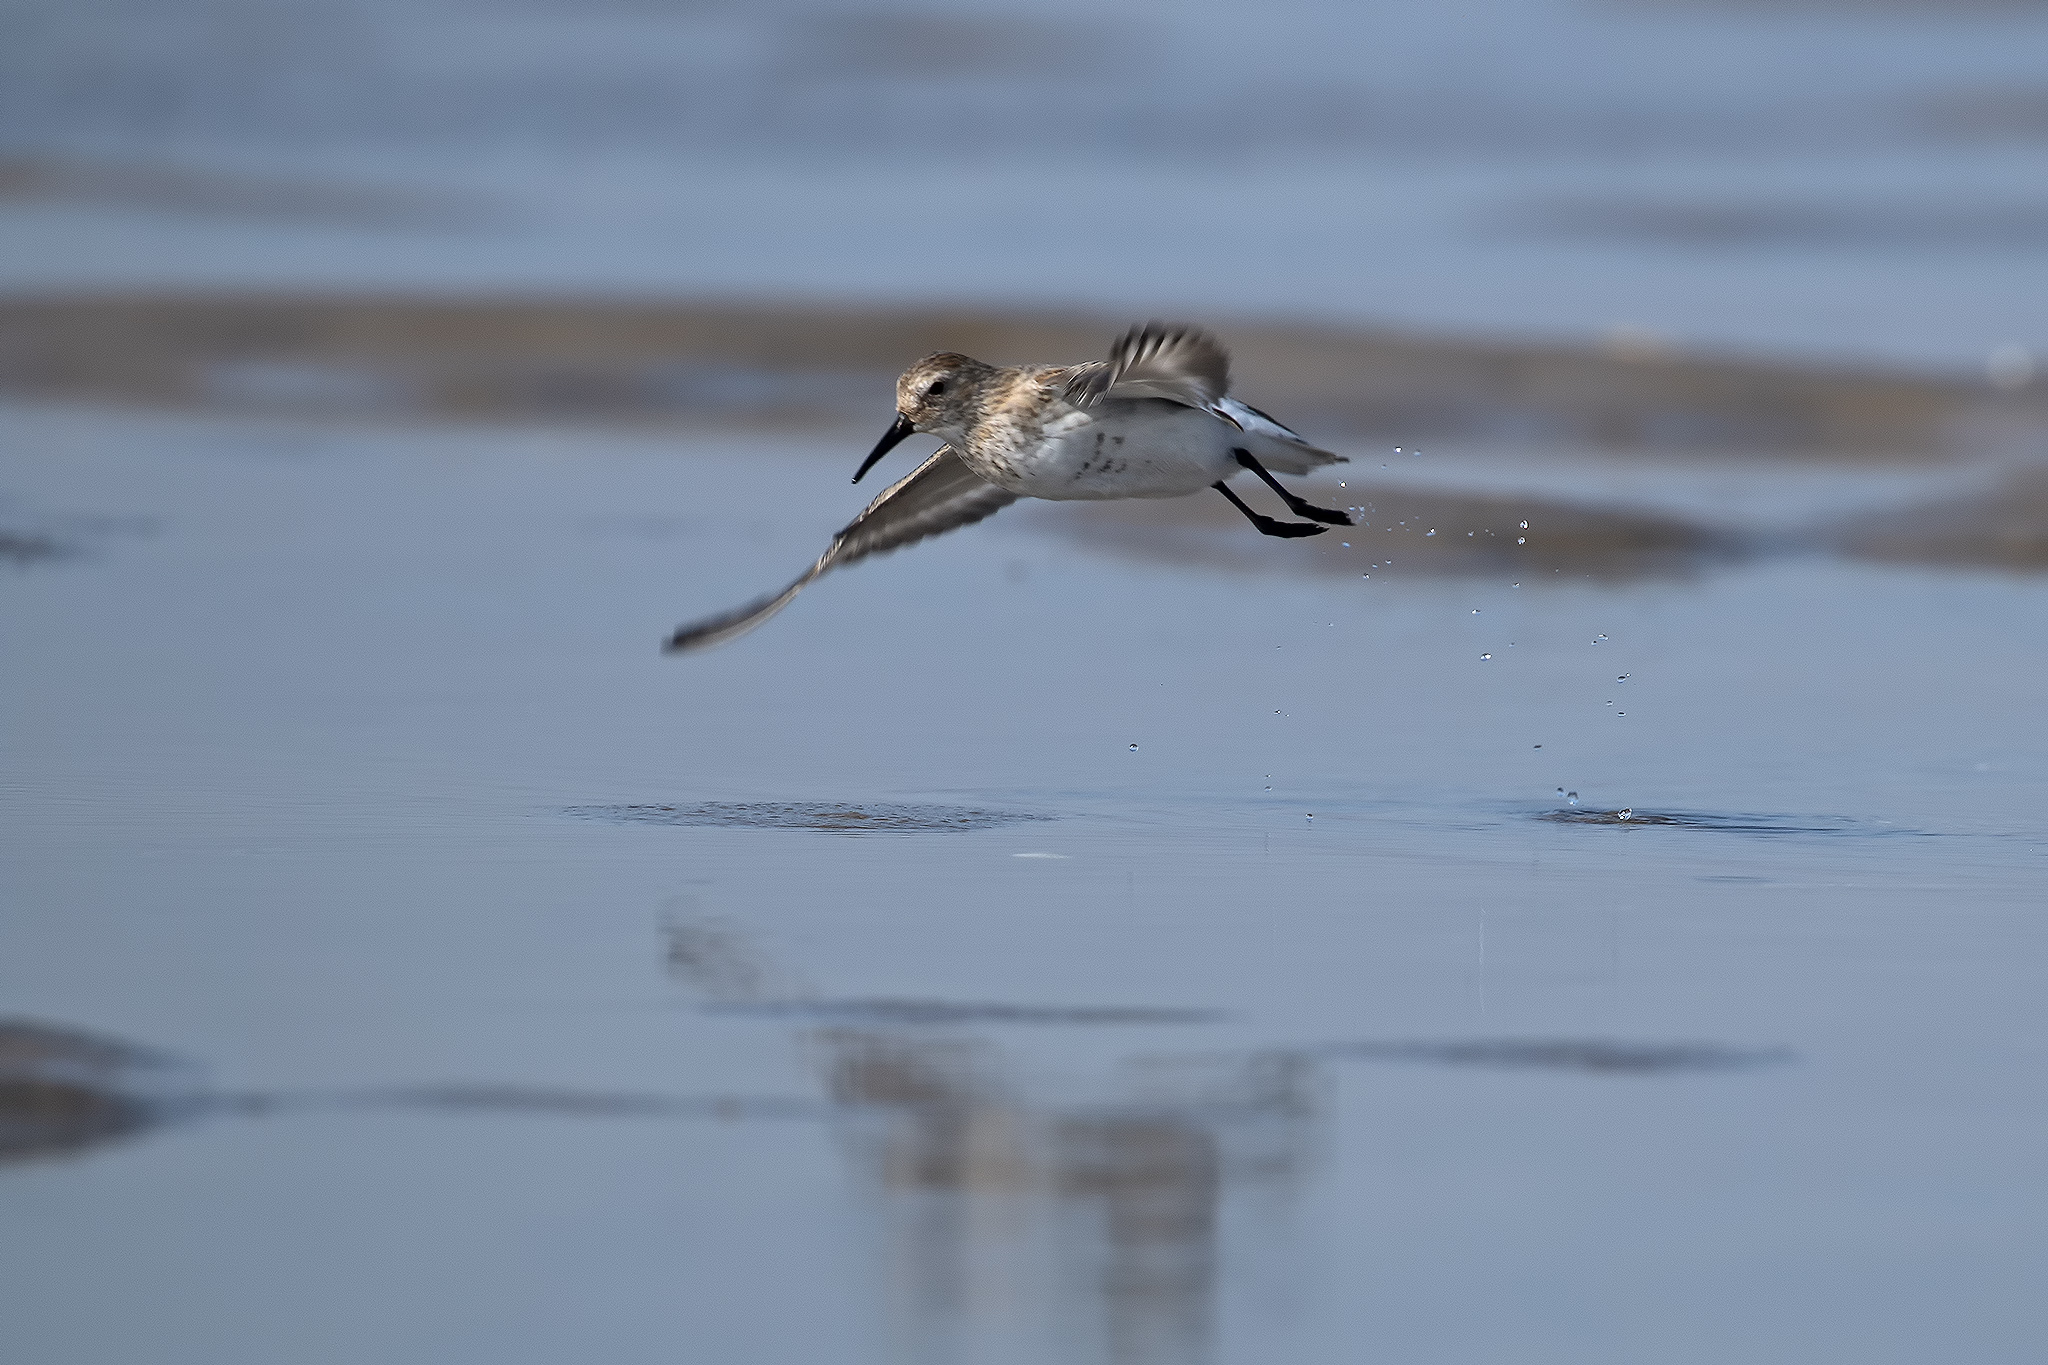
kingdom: Animalia
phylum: Chordata
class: Aves
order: Charadriiformes
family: Scolopacidae
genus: Calidris
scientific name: Calidris alpina
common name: Dunlin
